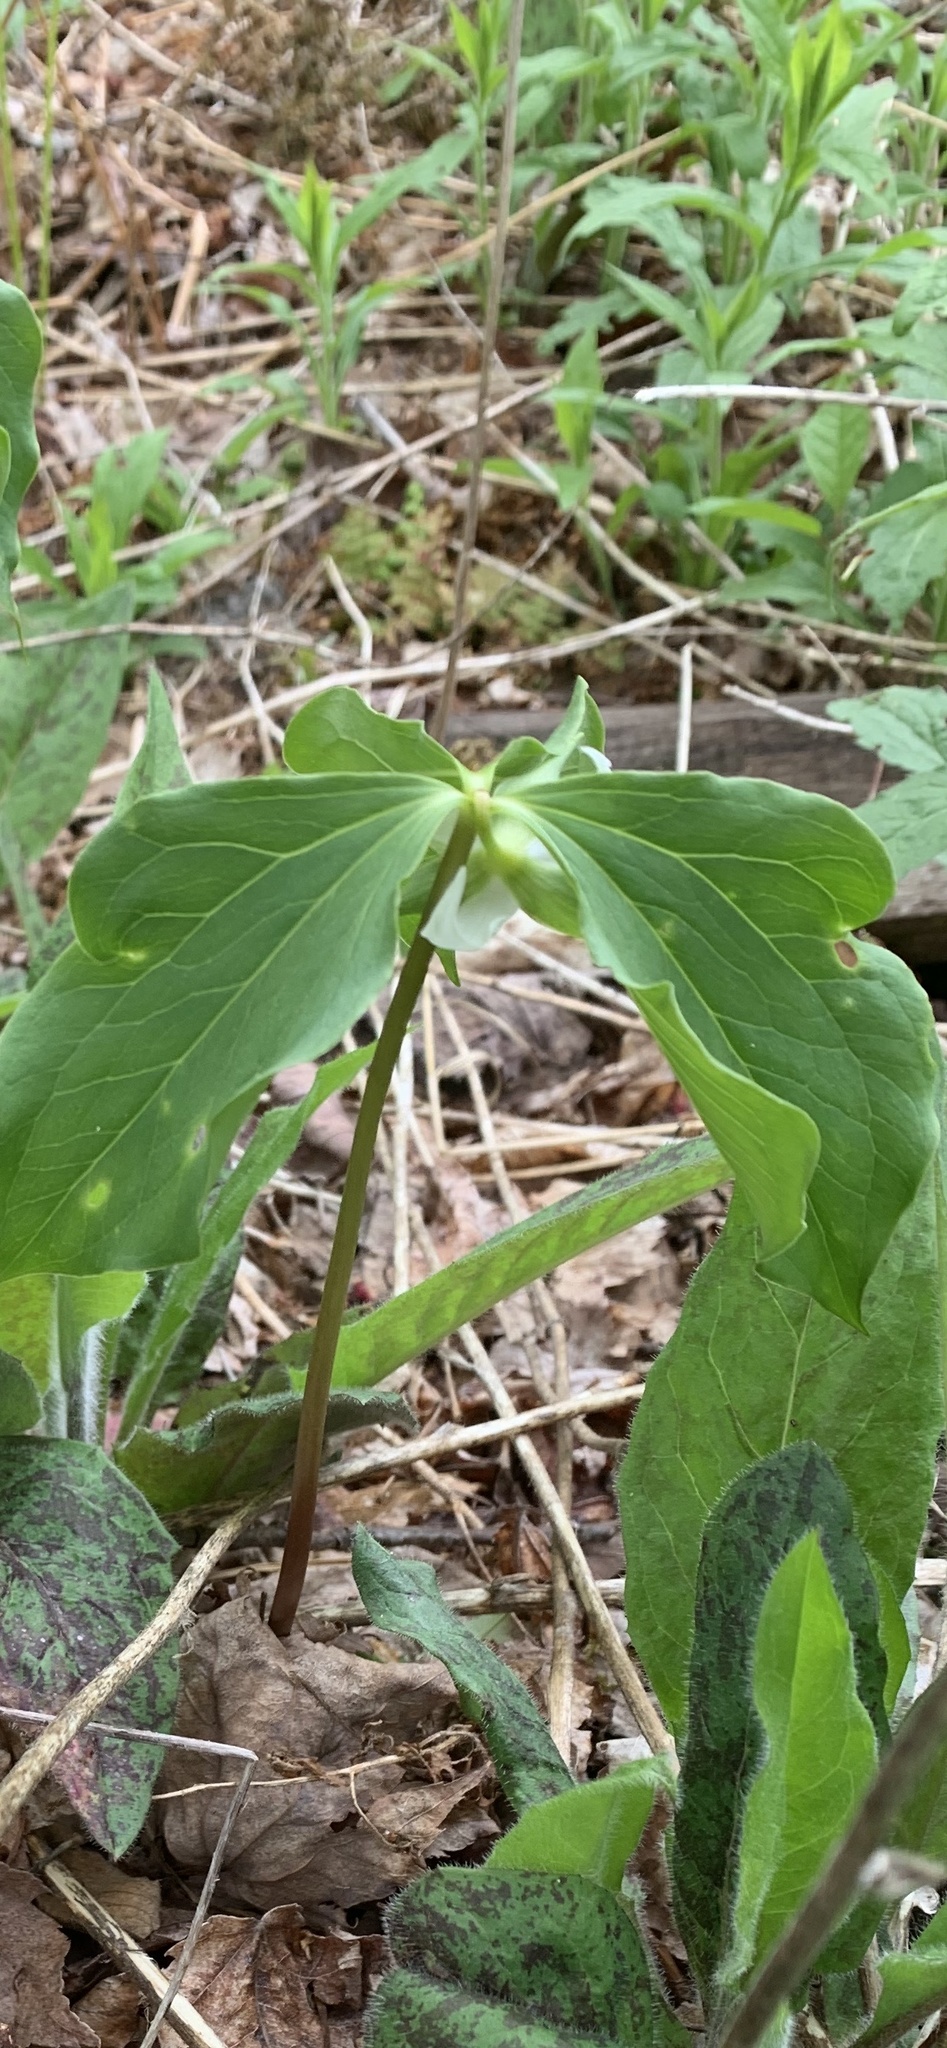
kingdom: Plantae
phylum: Tracheophyta
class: Liliopsida
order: Liliales
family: Melanthiaceae
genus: Trillium
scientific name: Trillium cernuum
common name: Nodding trillium
